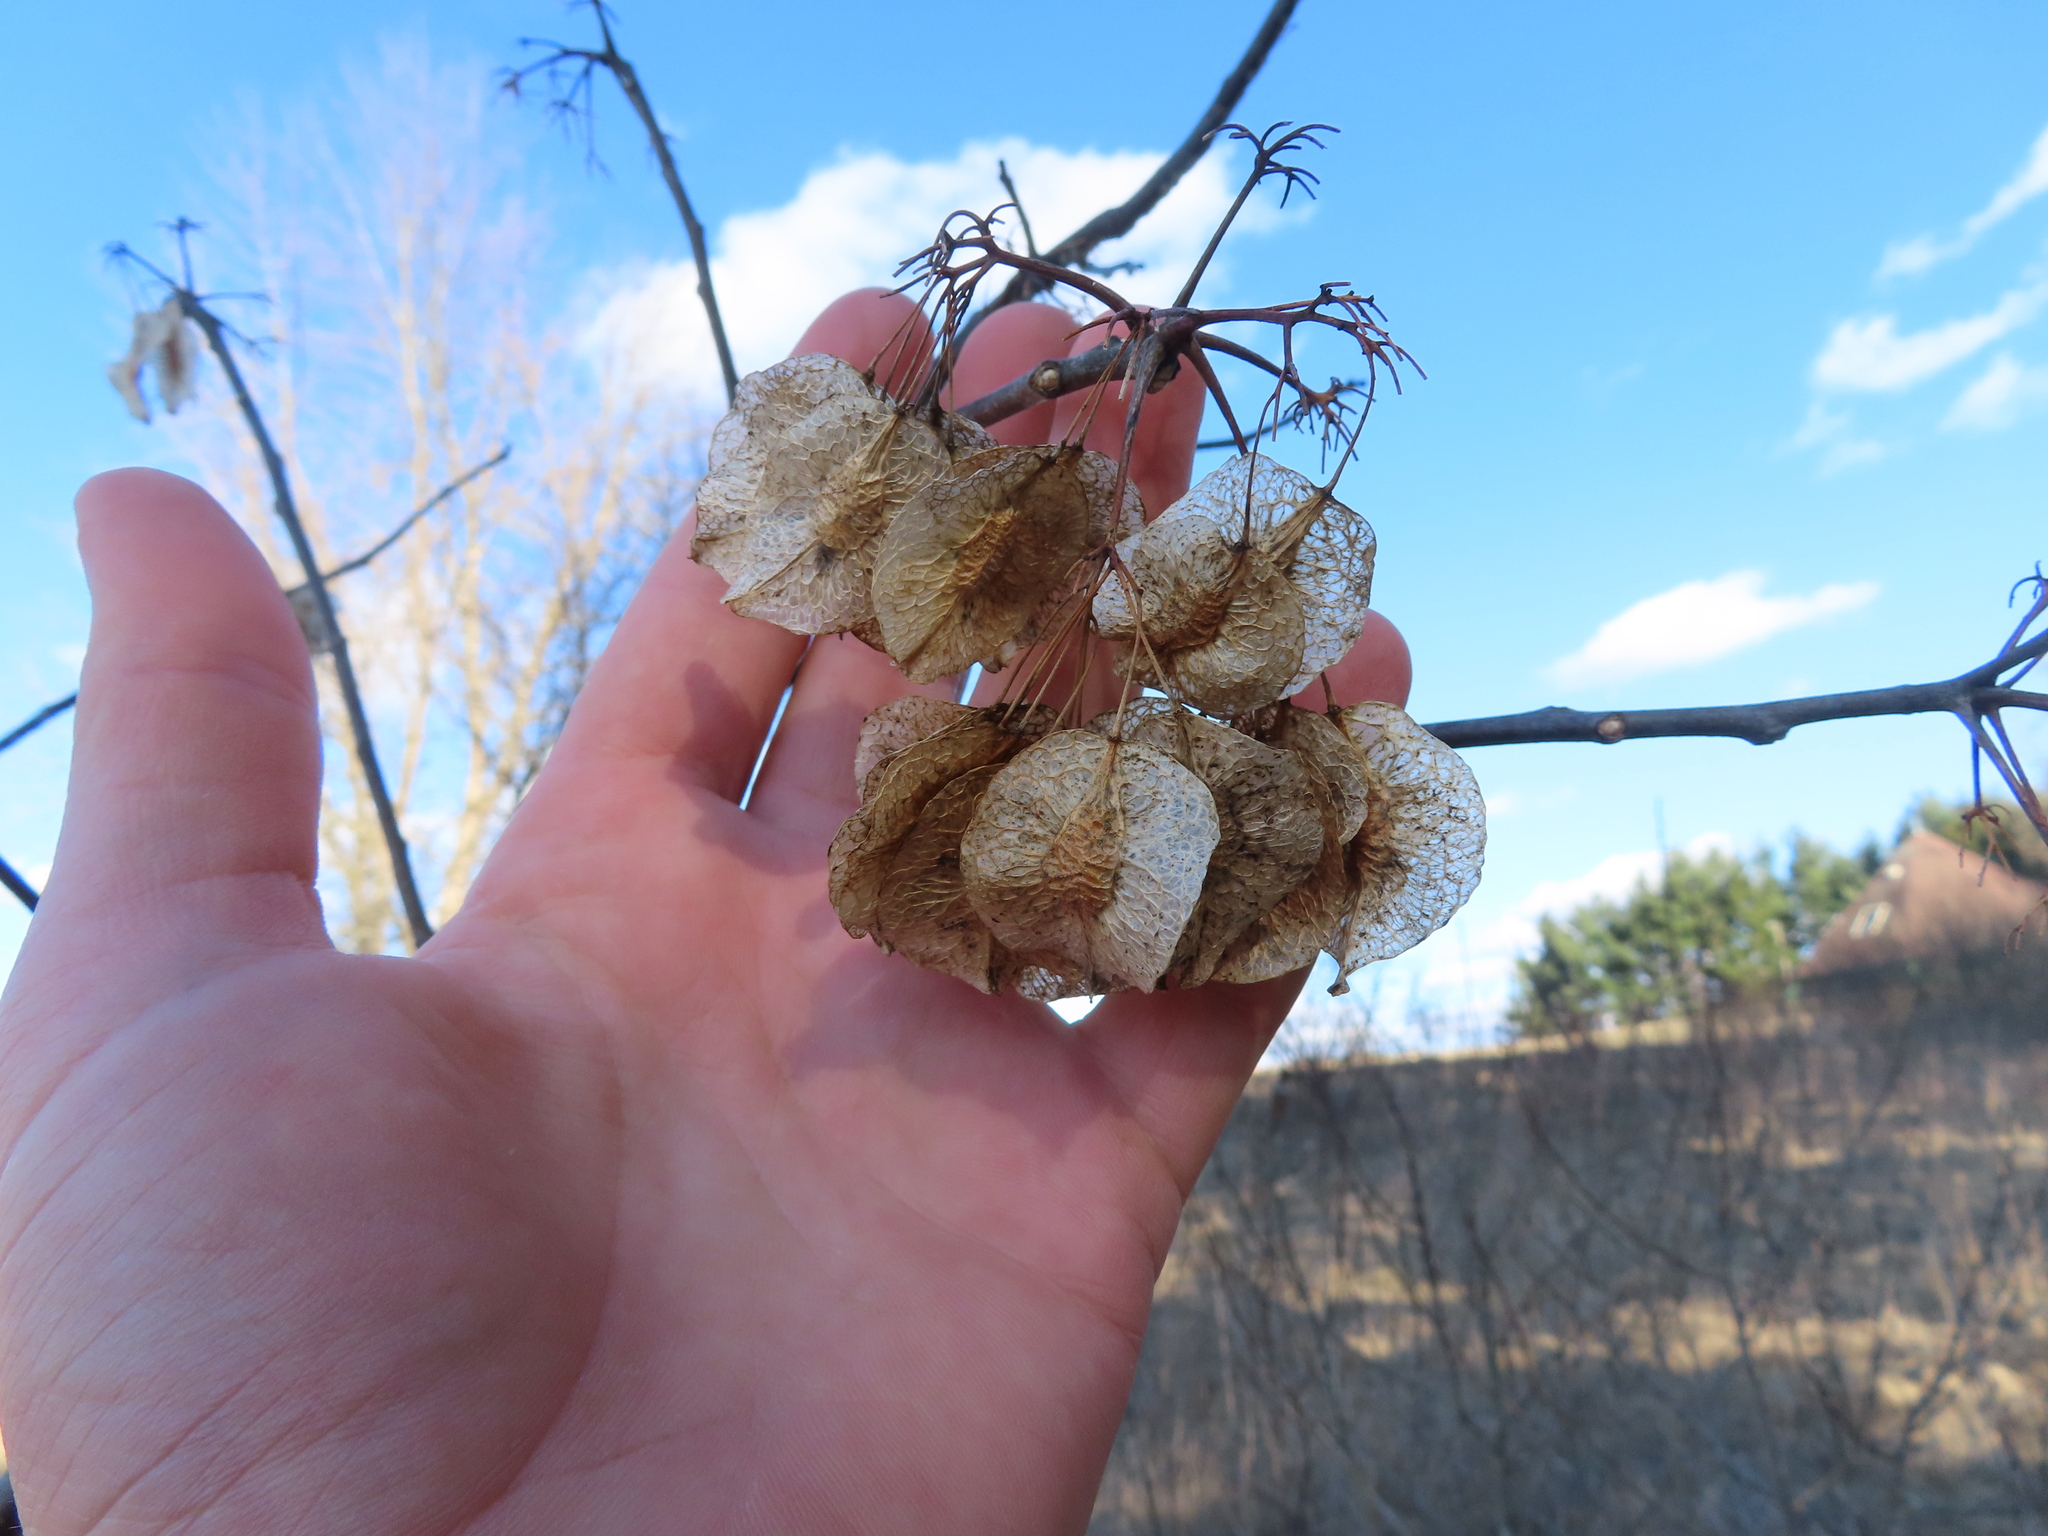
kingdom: Plantae
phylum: Tracheophyta
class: Magnoliopsida
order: Sapindales
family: Rutaceae
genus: Ptelea
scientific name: Ptelea trifoliata
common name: Common hop-tree
